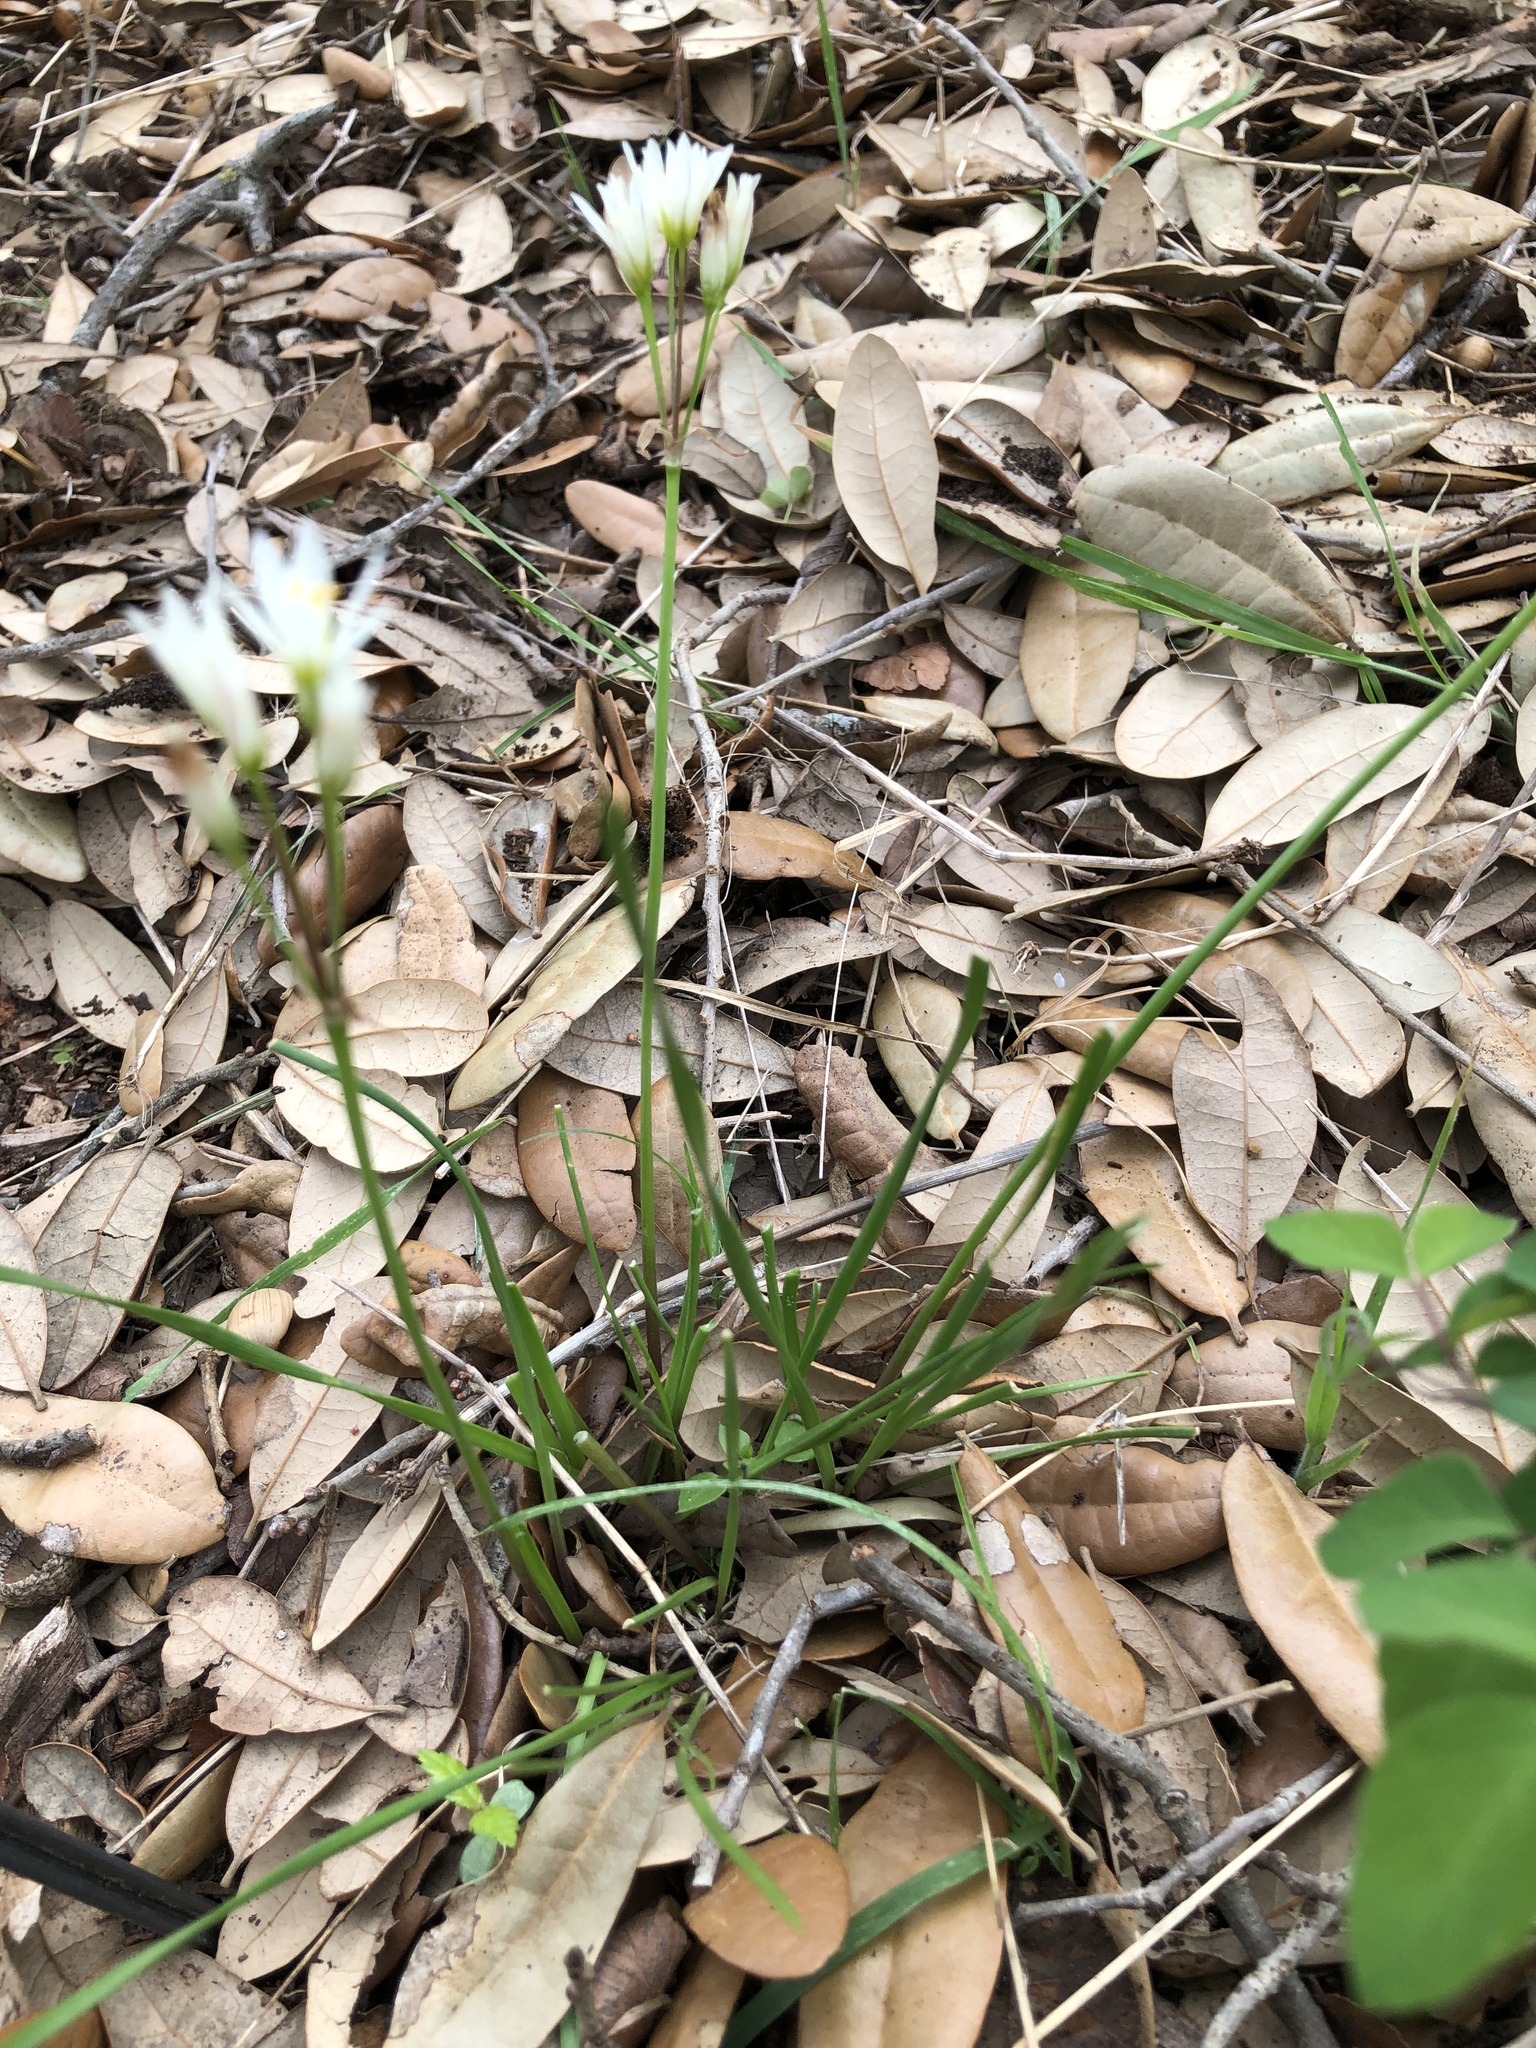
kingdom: Plantae
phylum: Tracheophyta
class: Liliopsida
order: Asparagales
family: Amaryllidaceae
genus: Nothoscordum
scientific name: Nothoscordum bivalve
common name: Crow-poison
